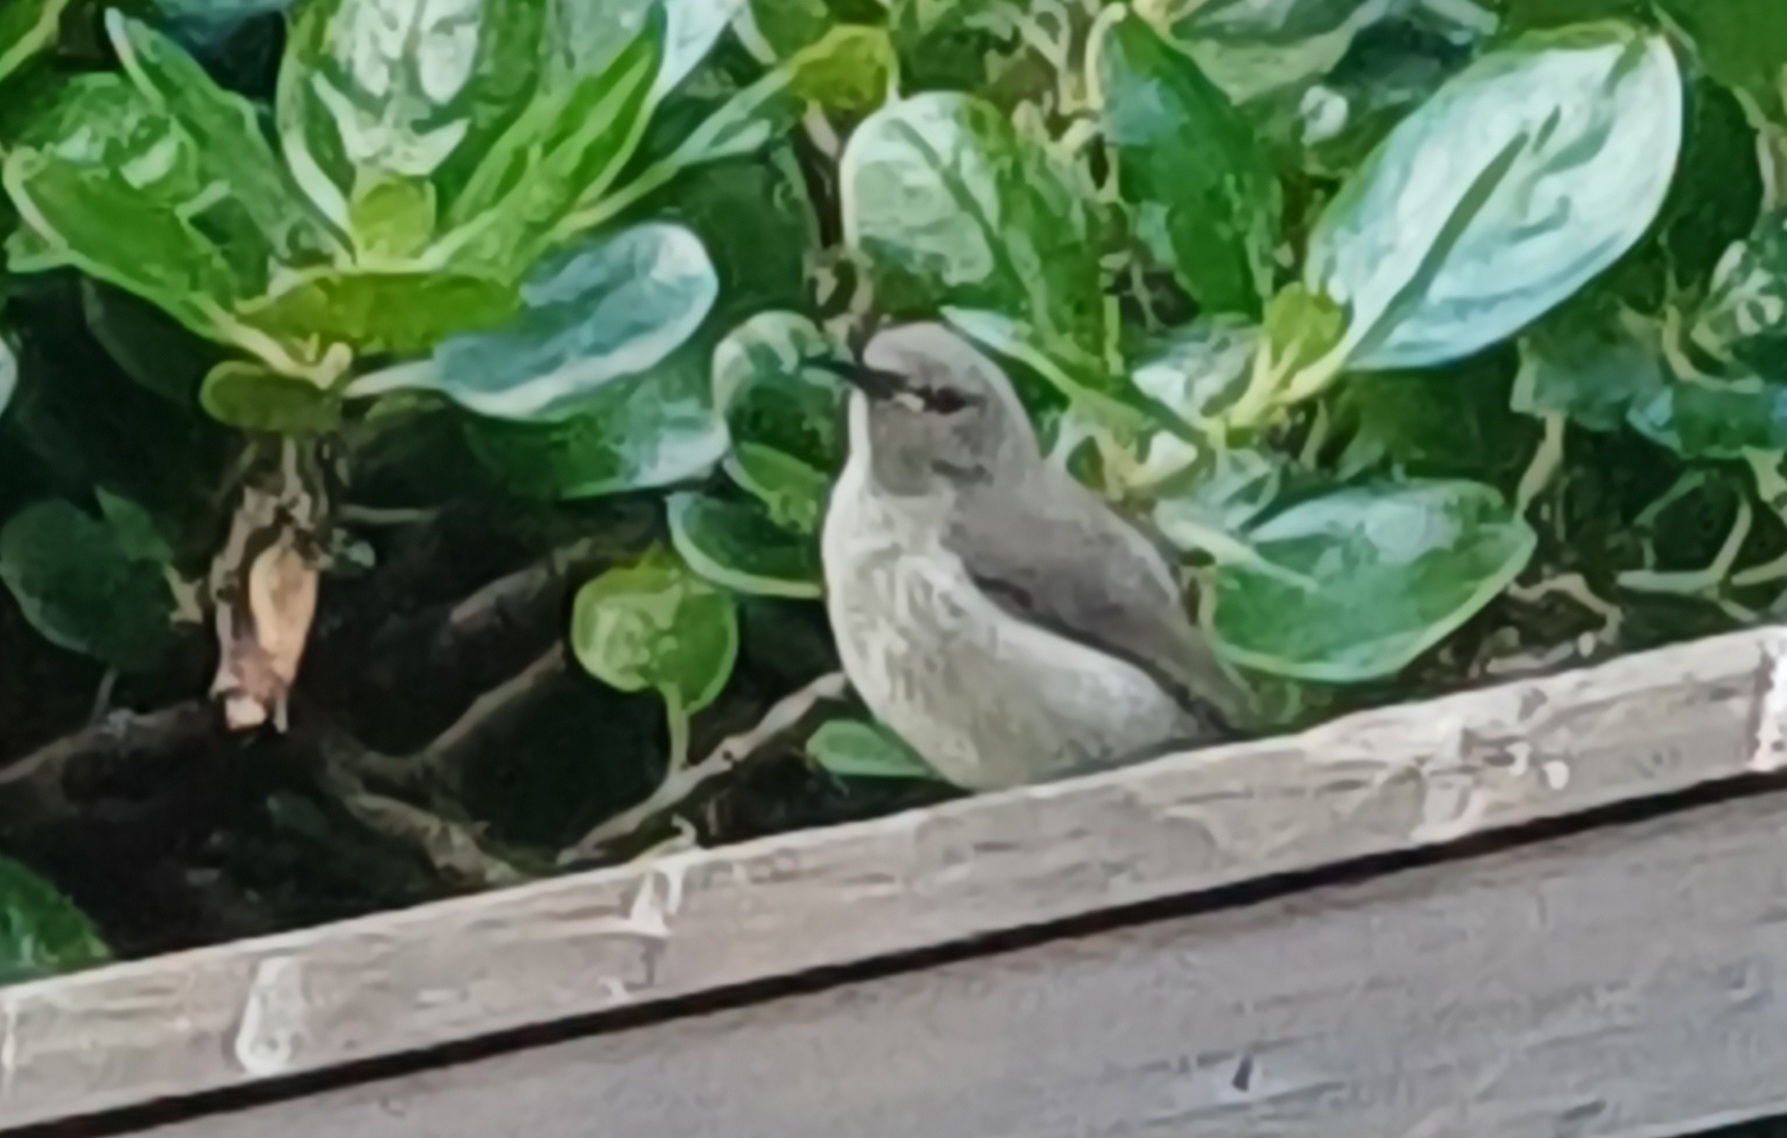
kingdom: Animalia
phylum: Chordata
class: Aves
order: Passeriformes
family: Nectariniidae
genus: Cinnyris
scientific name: Cinnyris chalybeus
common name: Southern double-collared sunbird
